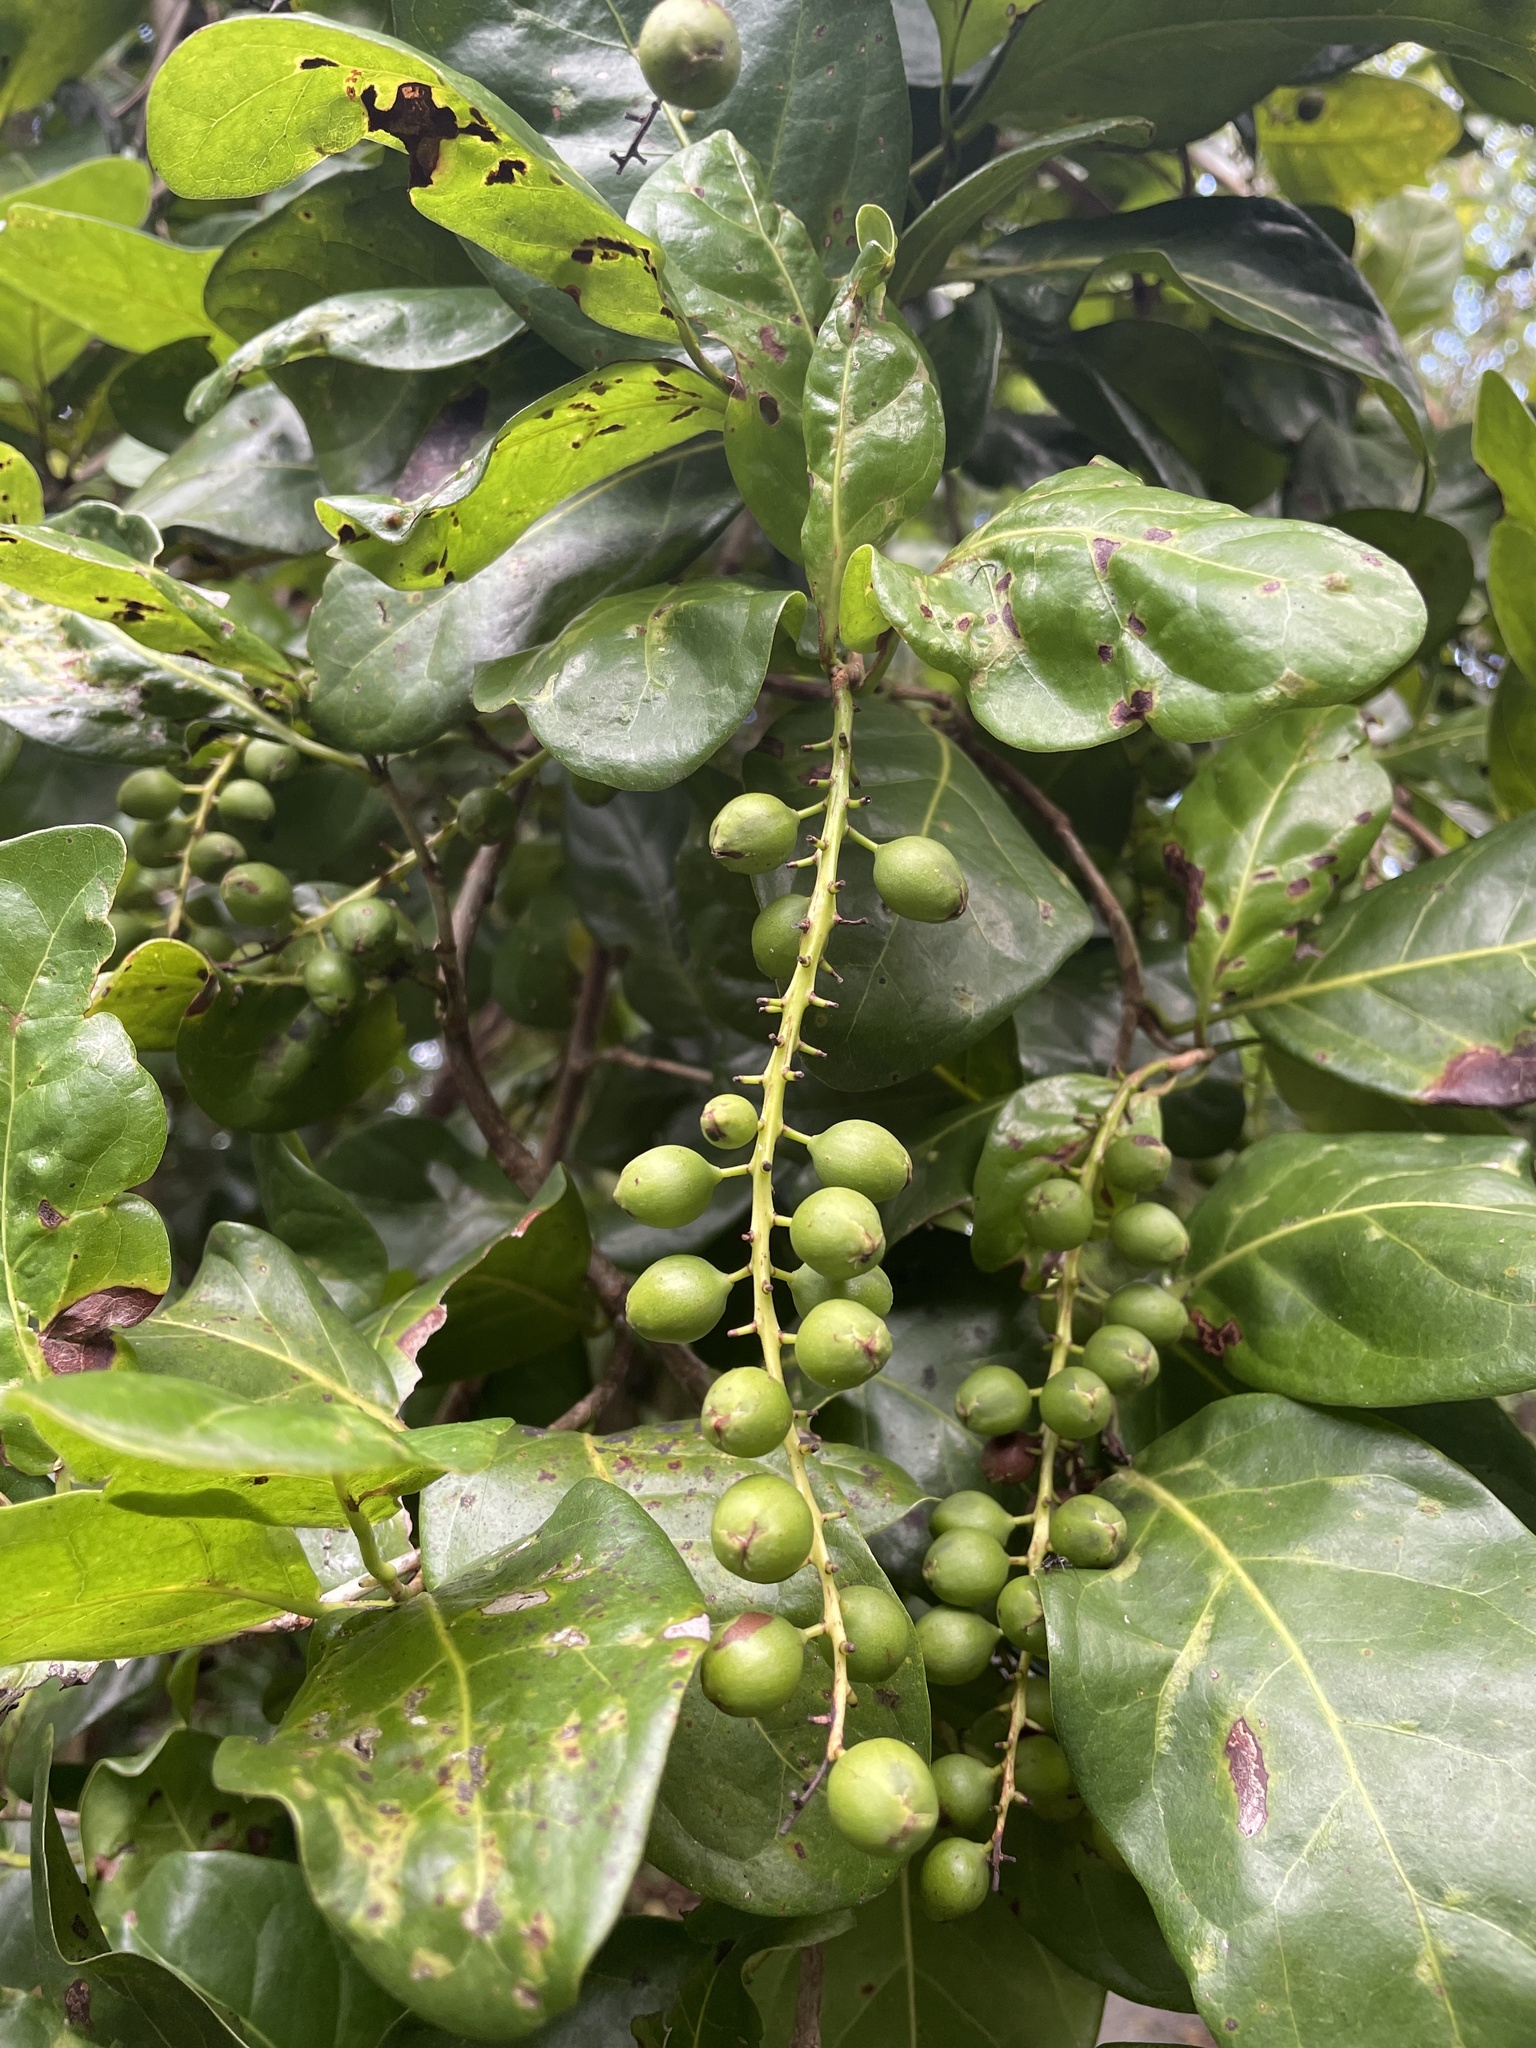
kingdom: Plantae
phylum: Tracheophyta
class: Magnoliopsida
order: Caryophyllales
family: Polygonaceae
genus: Coccoloba
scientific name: Coccoloba diversifolia
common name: Pigeon-plum
